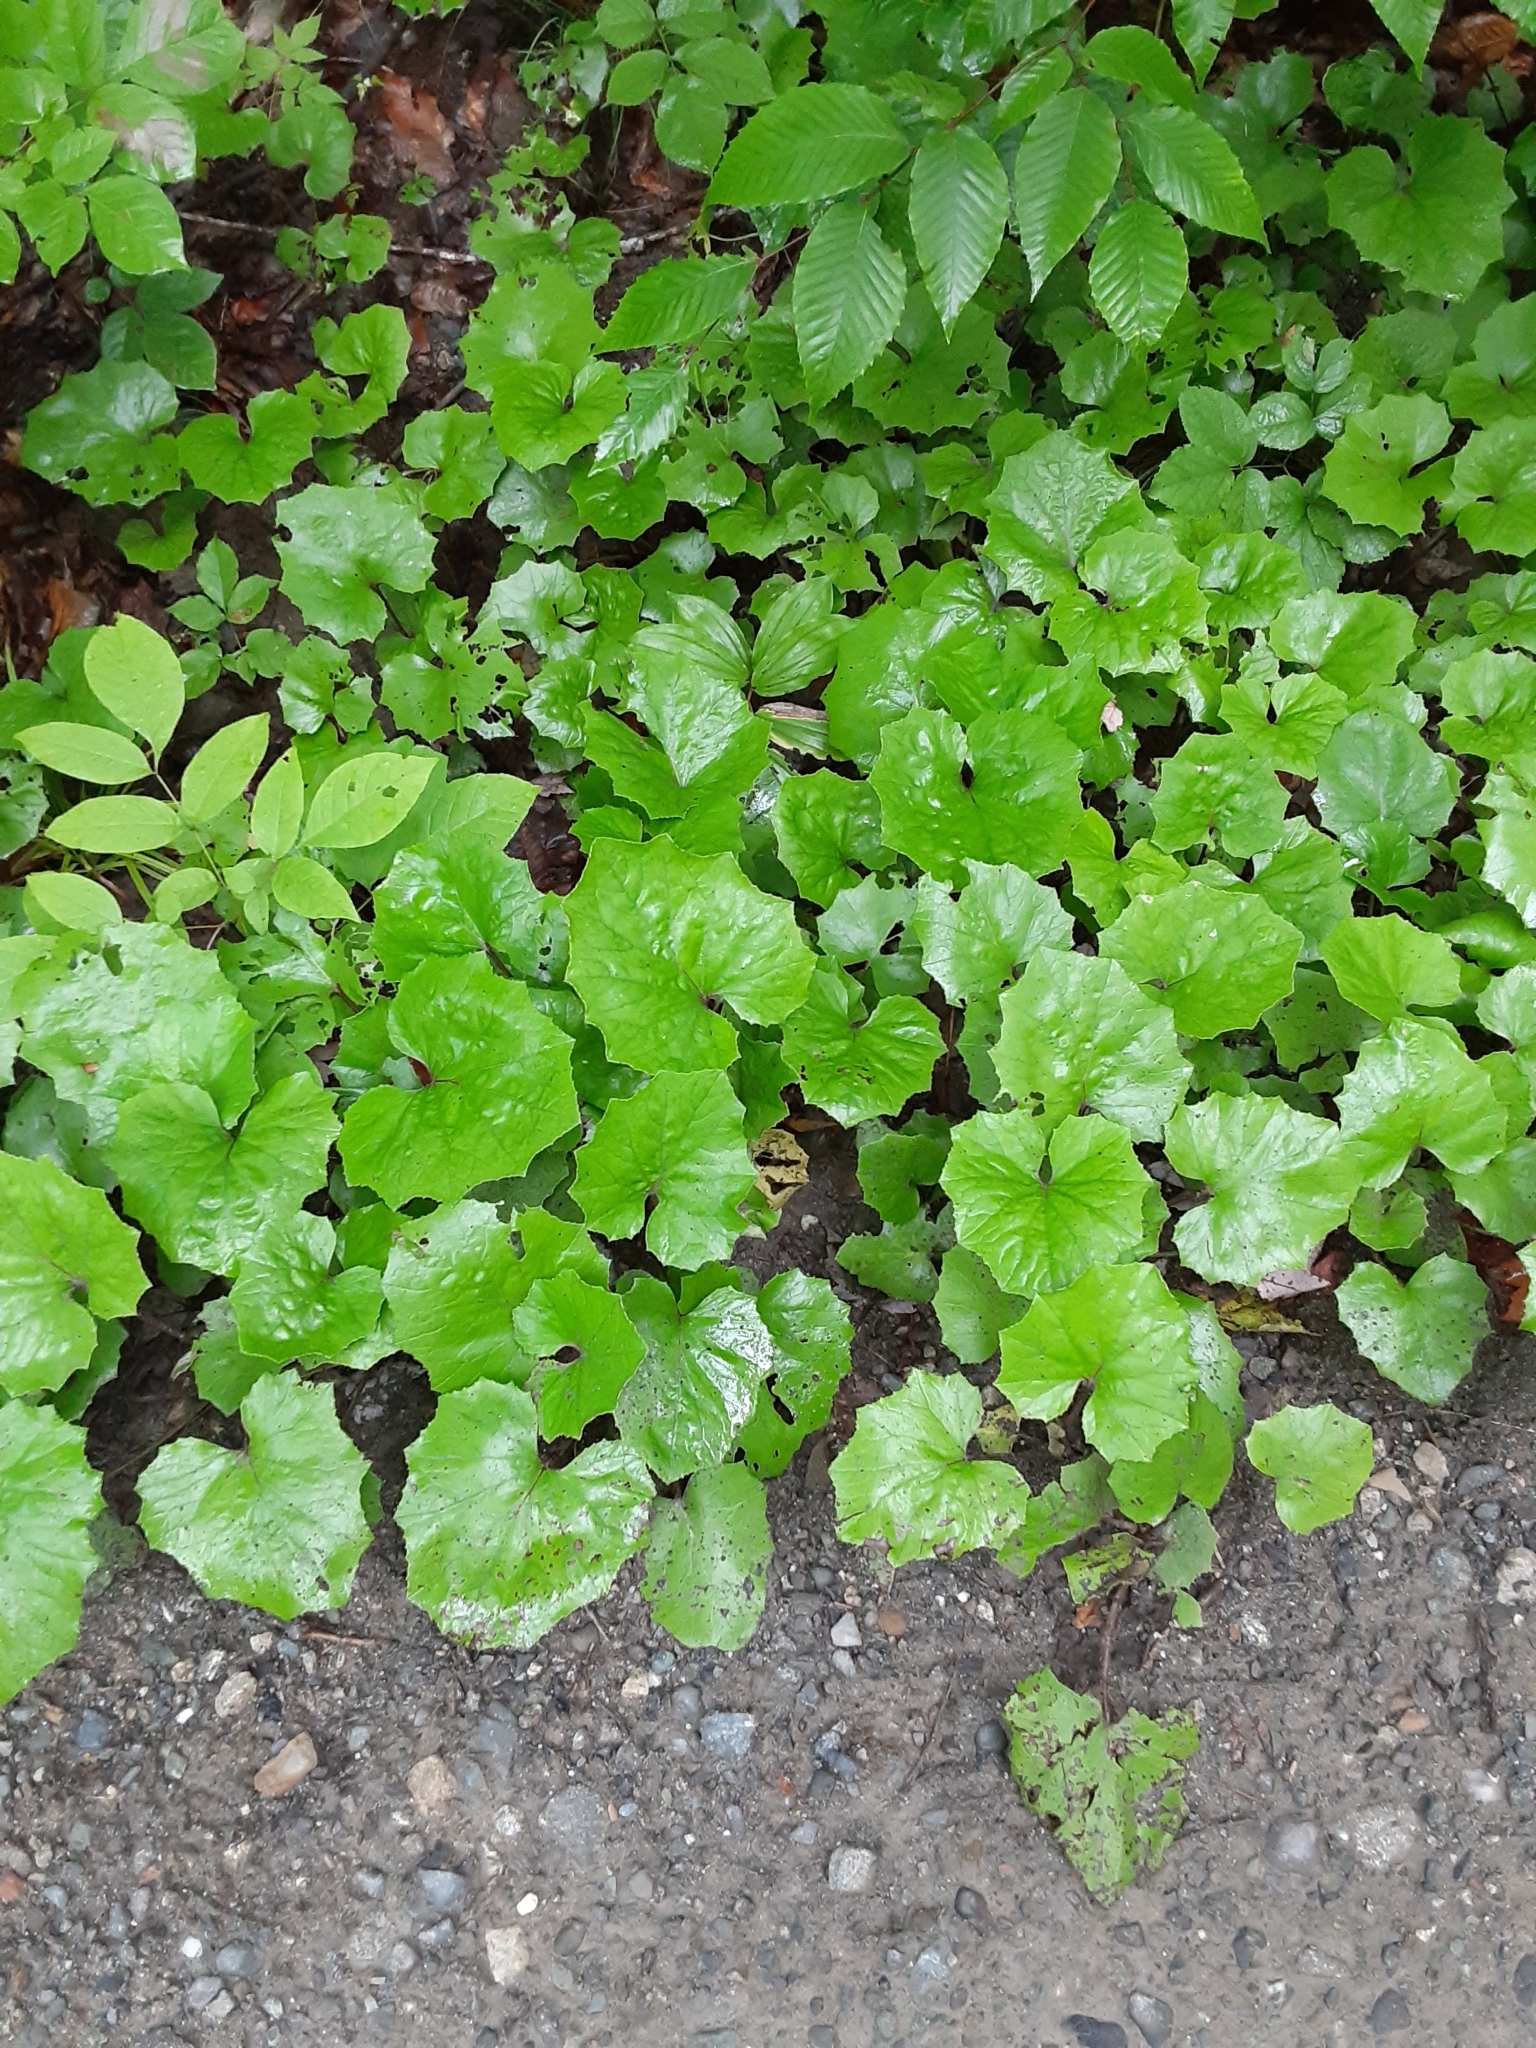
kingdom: Plantae
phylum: Tracheophyta
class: Magnoliopsida
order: Asterales
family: Asteraceae
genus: Tussilago
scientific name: Tussilago farfara
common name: Coltsfoot
